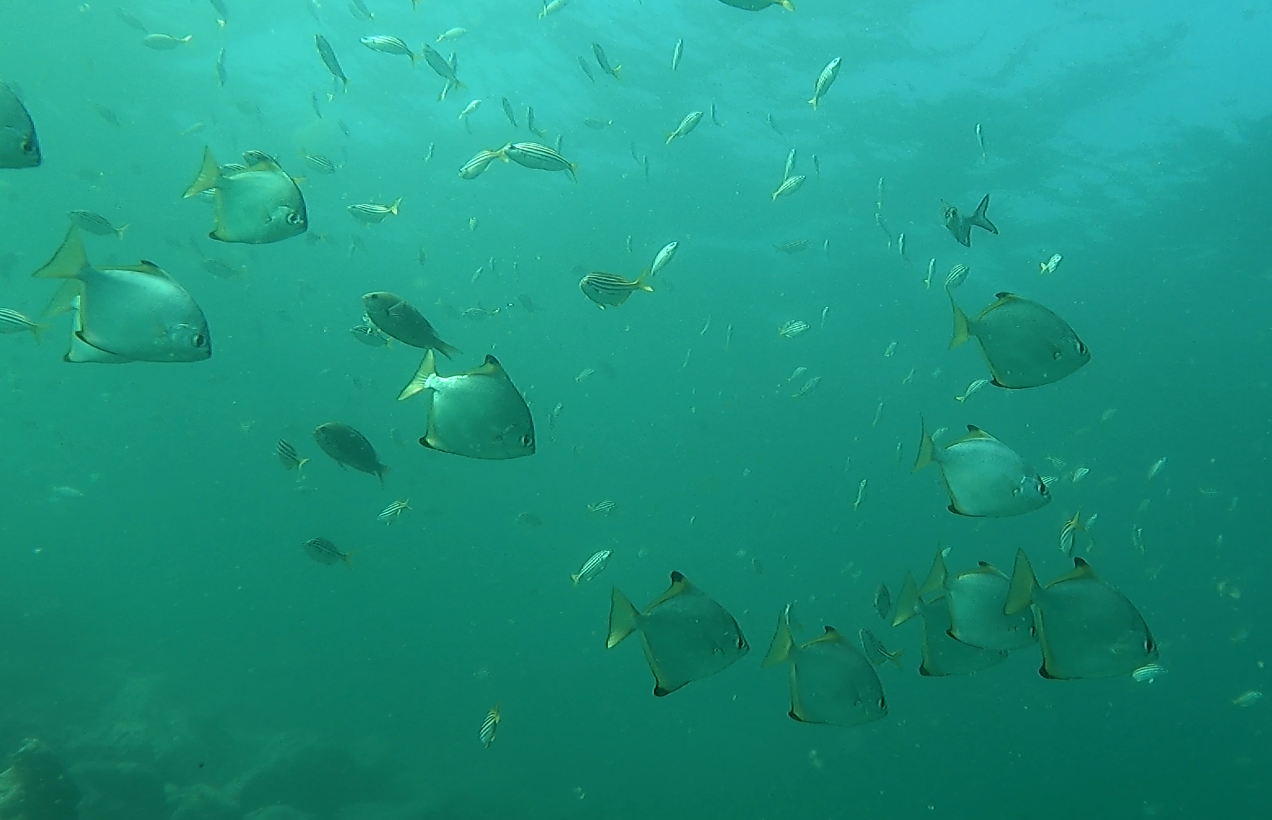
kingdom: Animalia
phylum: Chordata
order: Perciformes
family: Monodactylidae
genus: Monodactylus
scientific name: Monodactylus argenteus
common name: Silver moony
